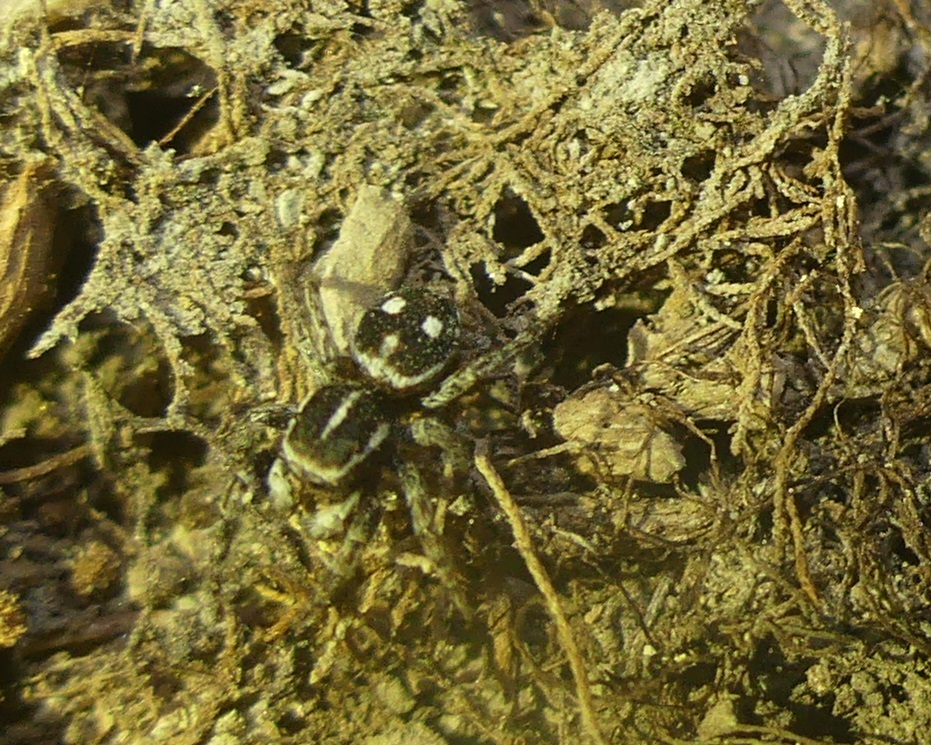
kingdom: Animalia
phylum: Arthropoda
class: Arachnida
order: Araneae
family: Salticidae
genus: Attulus
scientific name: Attulus atricapillus
